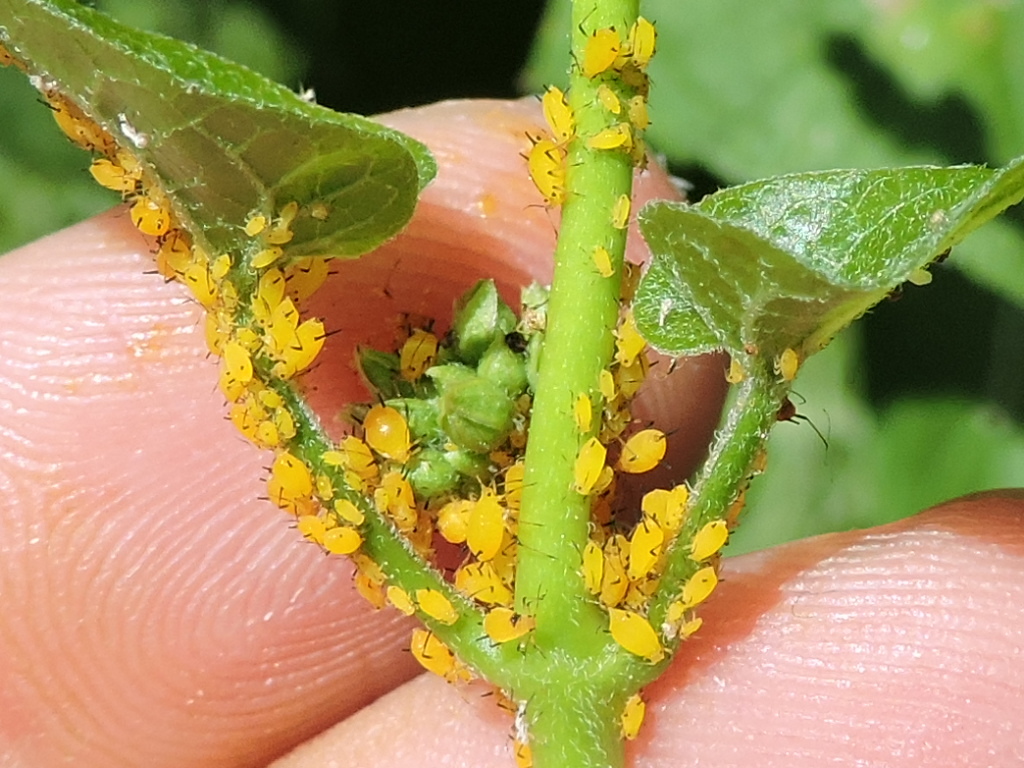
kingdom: Animalia
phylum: Arthropoda
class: Insecta
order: Hemiptera
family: Aphididae
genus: Aphis
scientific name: Aphis nerii
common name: Oleander aphid
